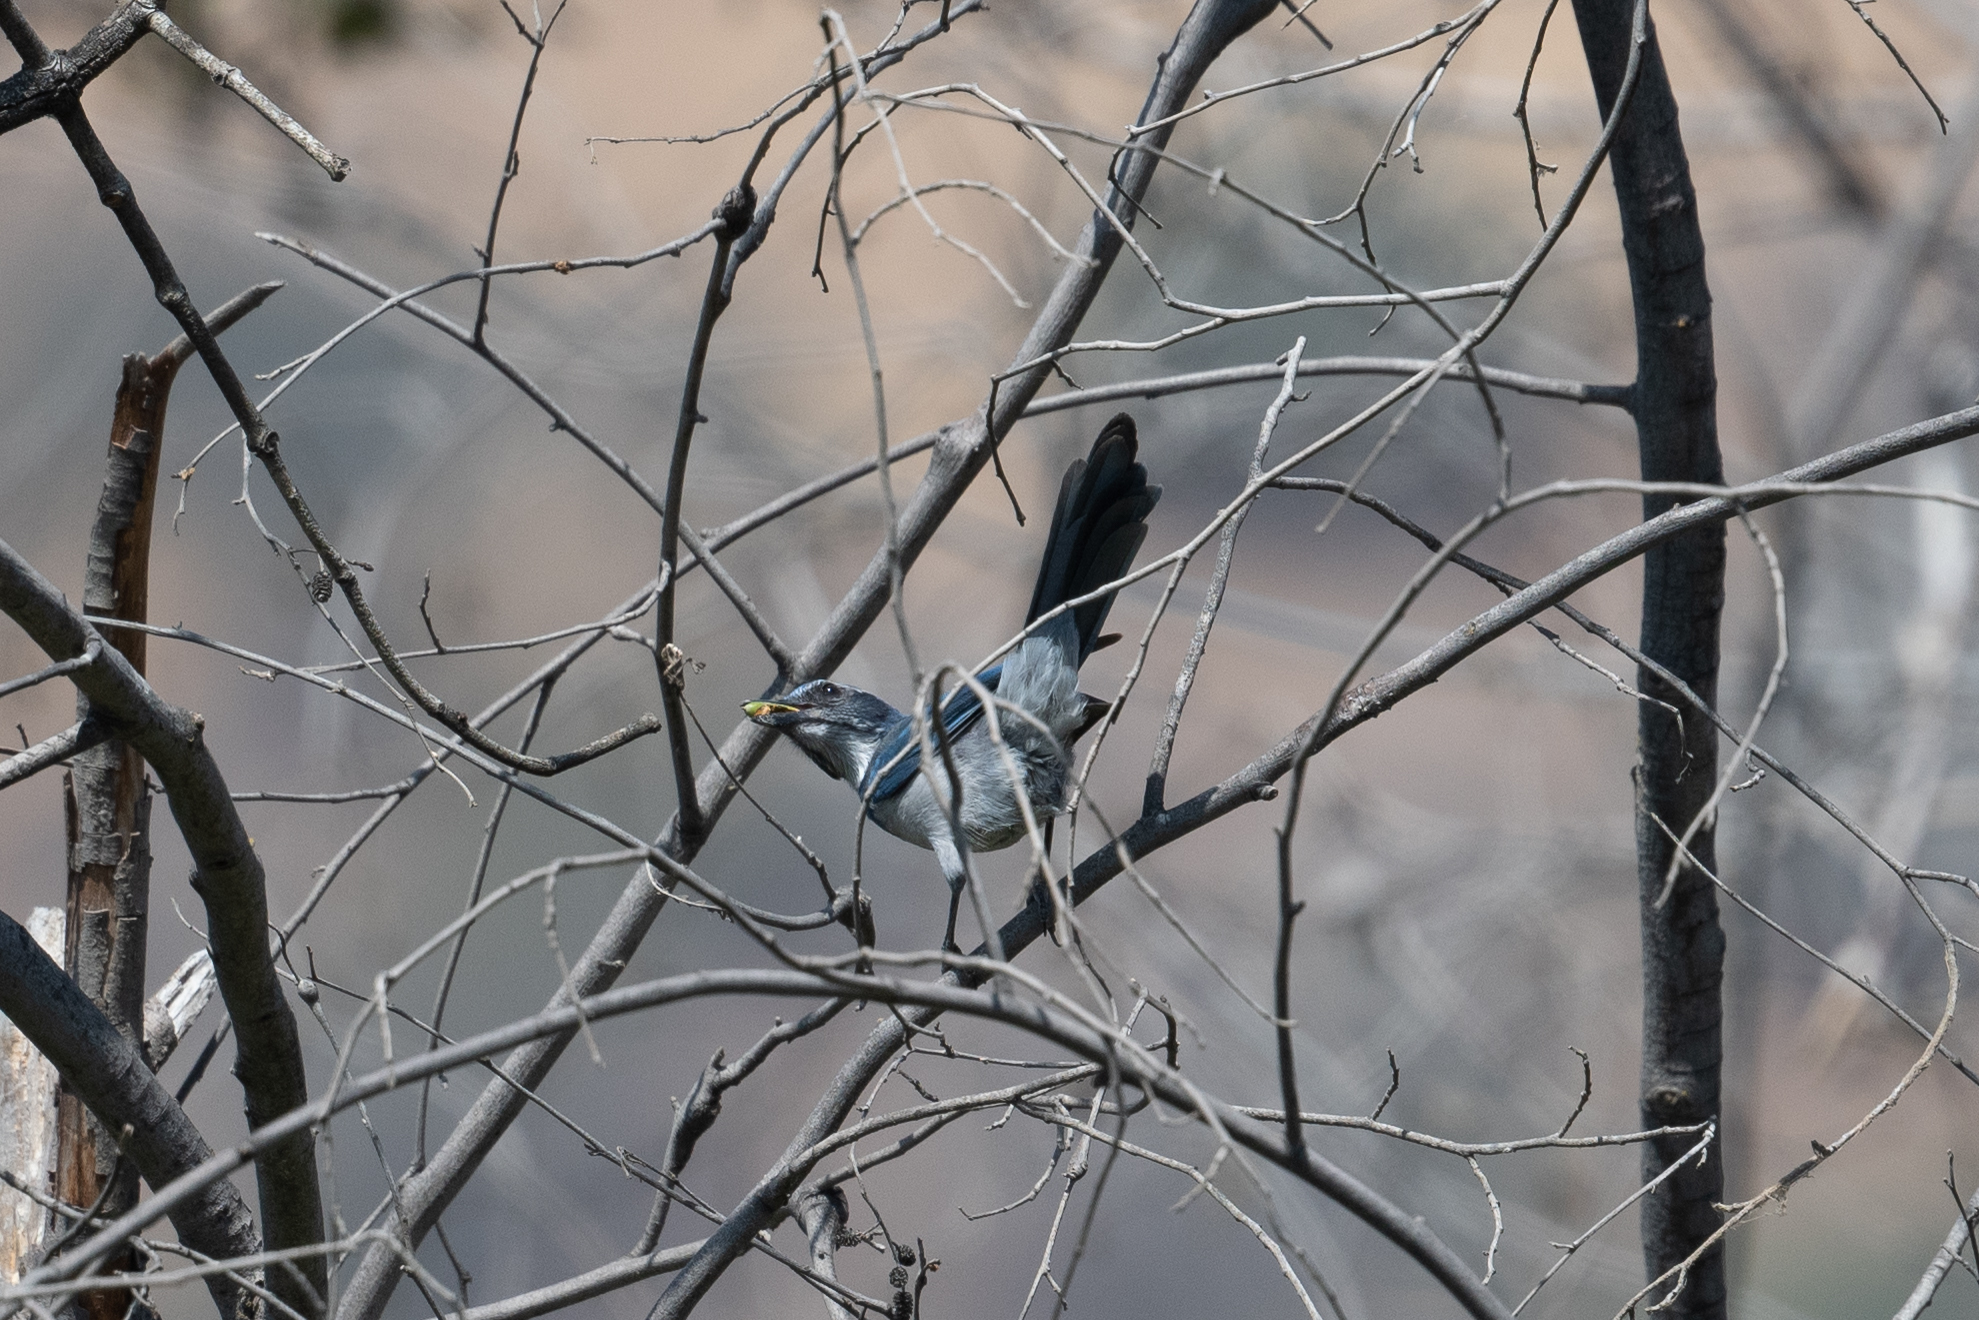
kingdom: Animalia
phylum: Chordata
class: Aves
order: Passeriformes
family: Corvidae
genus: Aphelocoma
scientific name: Aphelocoma californica
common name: California scrub-jay
